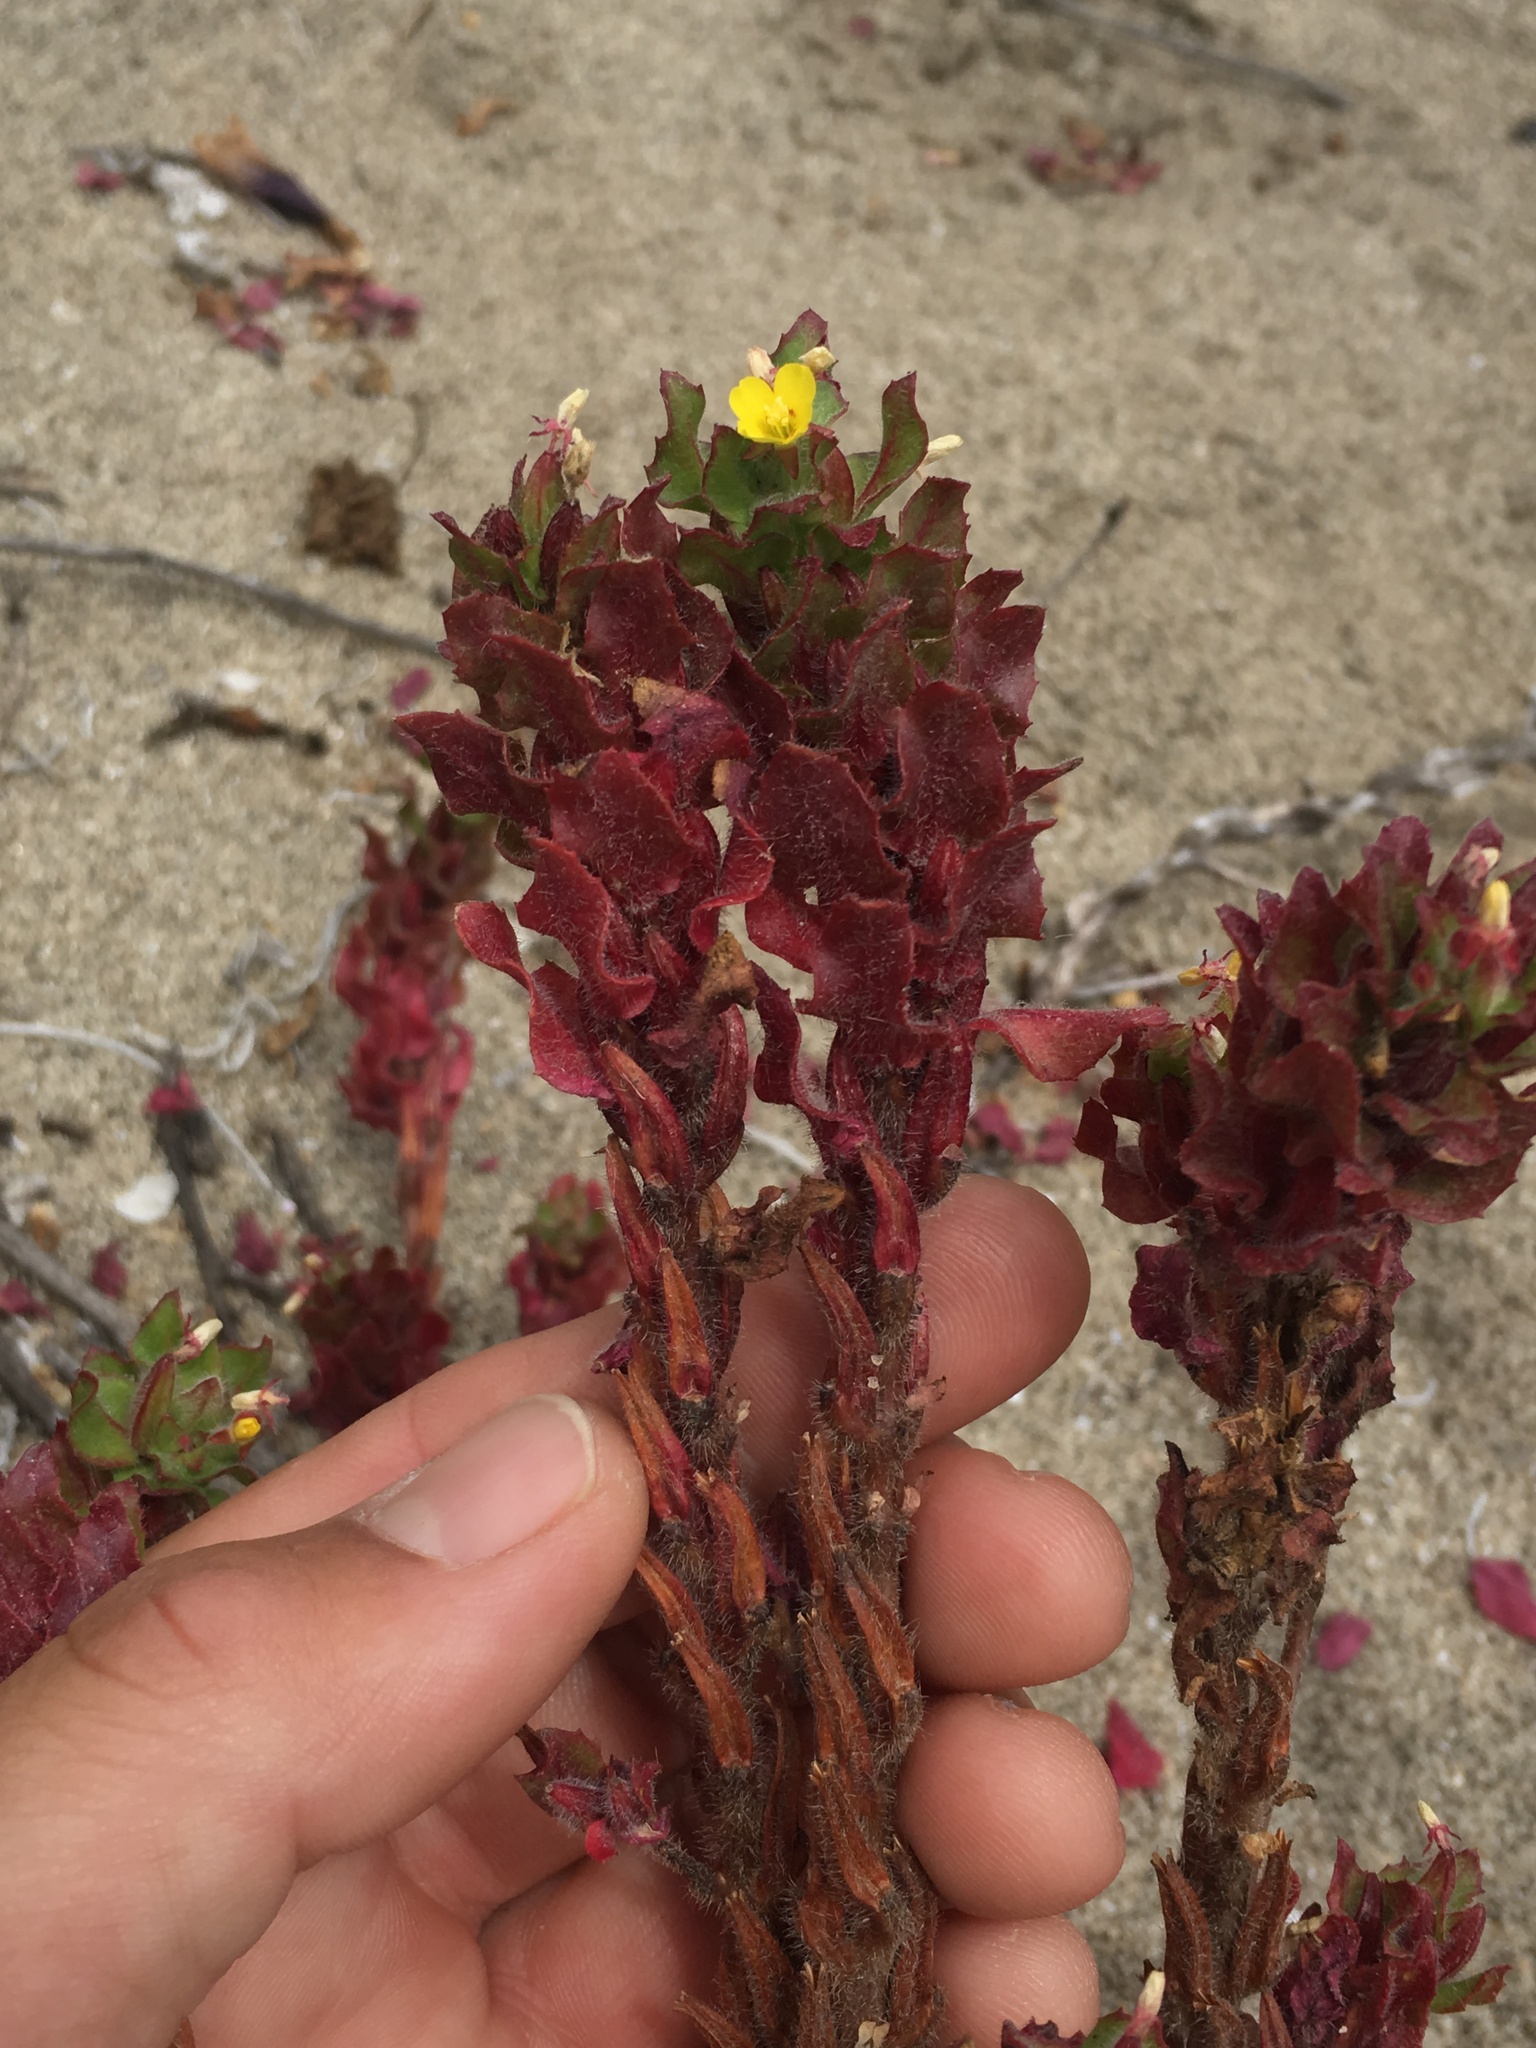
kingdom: Plantae
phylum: Tracheophyta
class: Magnoliopsida
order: Myrtales
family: Onagraceae
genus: Camissoniopsis
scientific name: Camissoniopsis guadalupensis
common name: Guadalupe suncup
